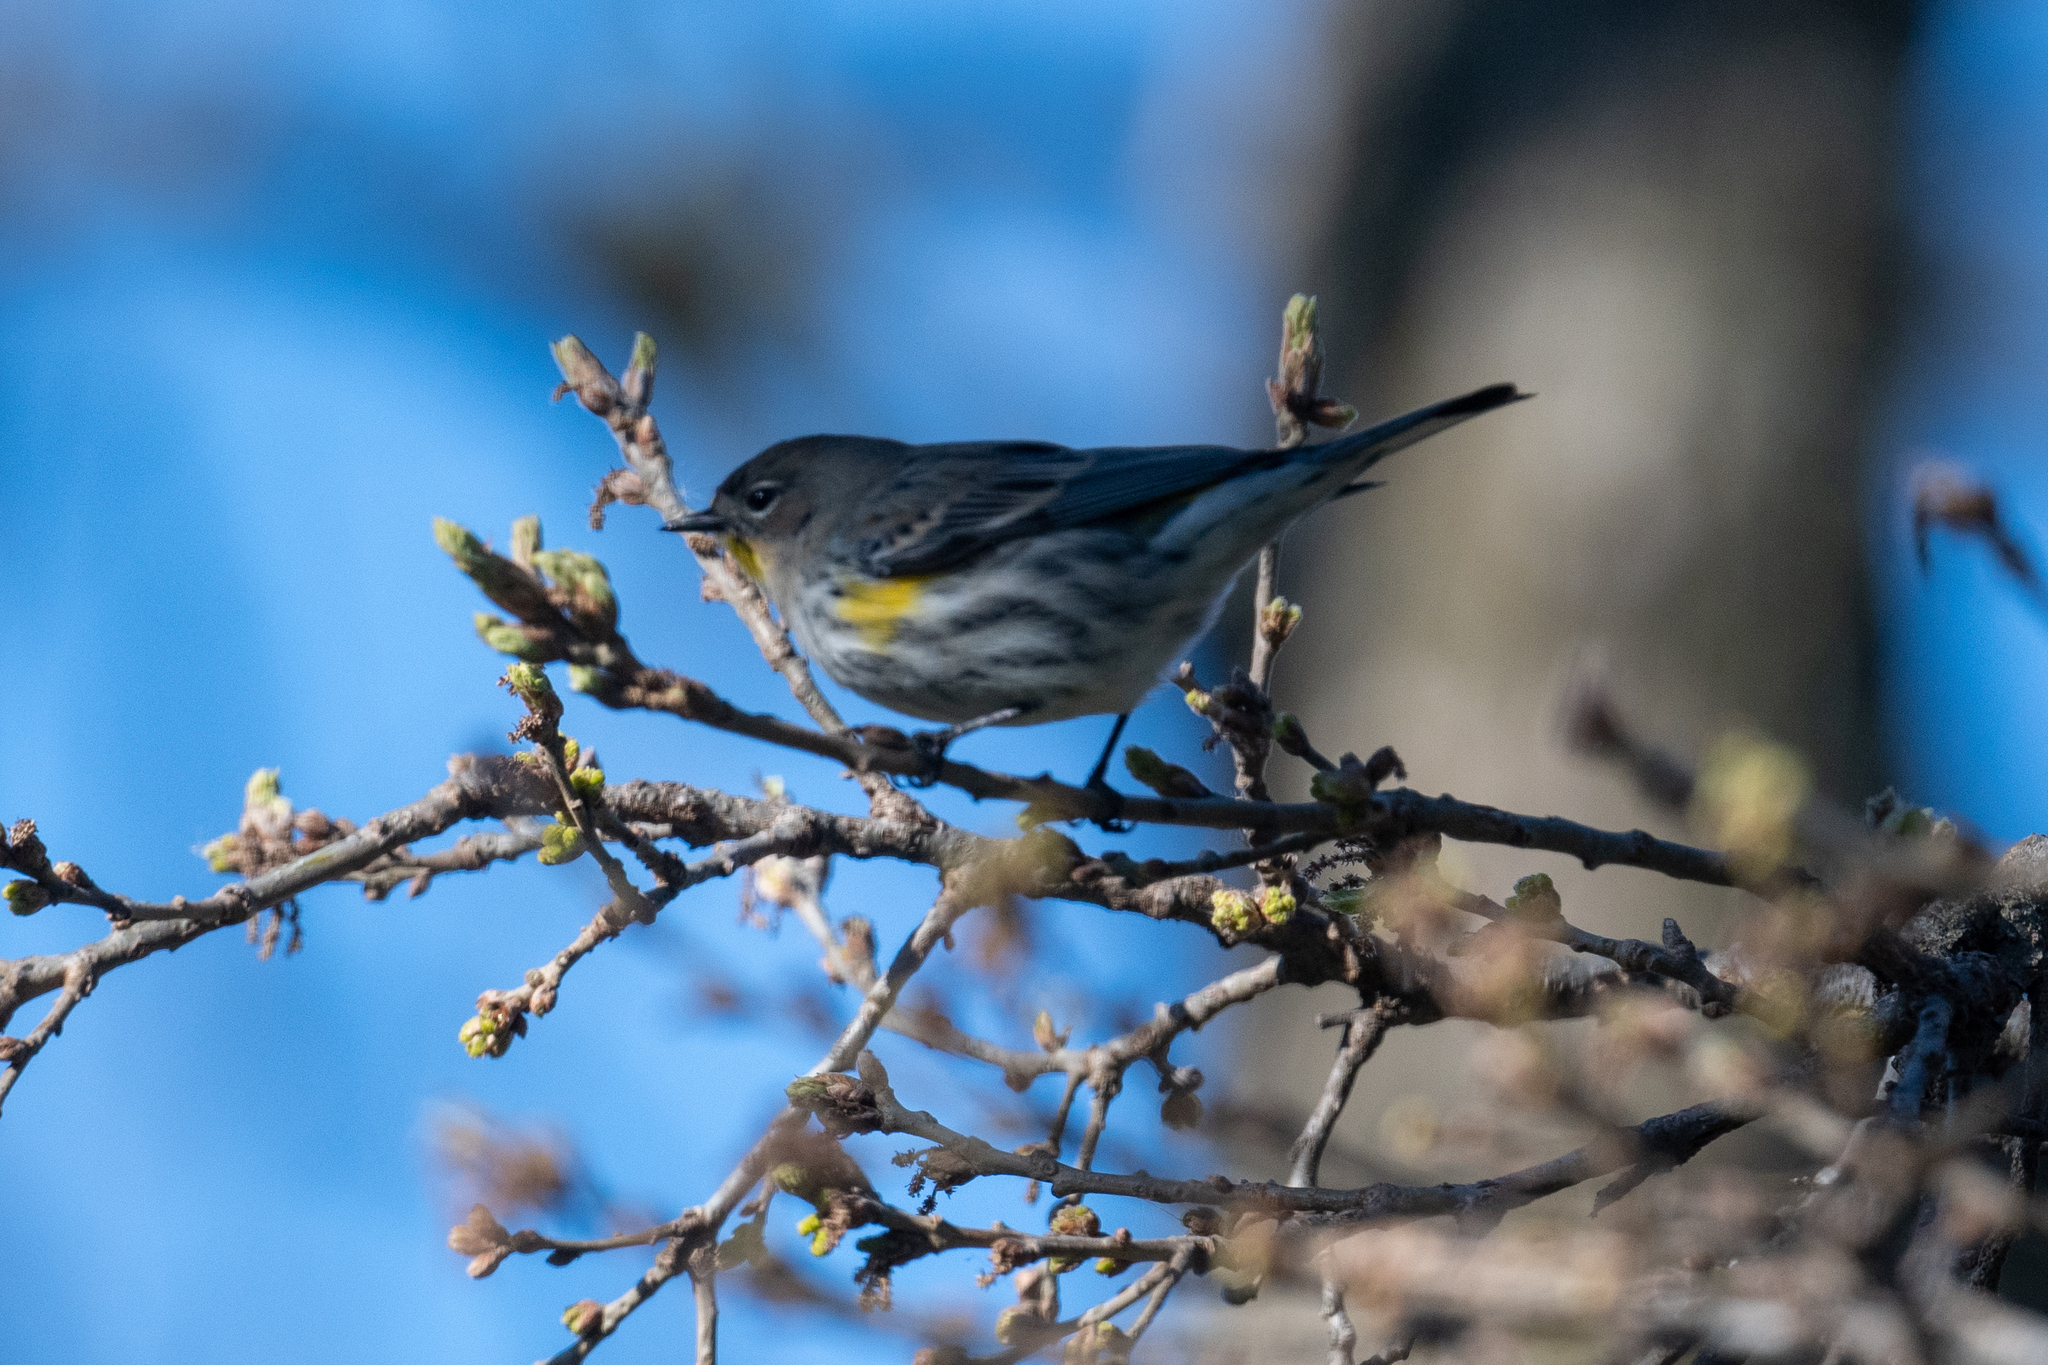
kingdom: Animalia
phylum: Chordata
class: Aves
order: Passeriformes
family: Parulidae
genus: Setophaga
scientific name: Setophaga coronata
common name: Myrtle warbler
